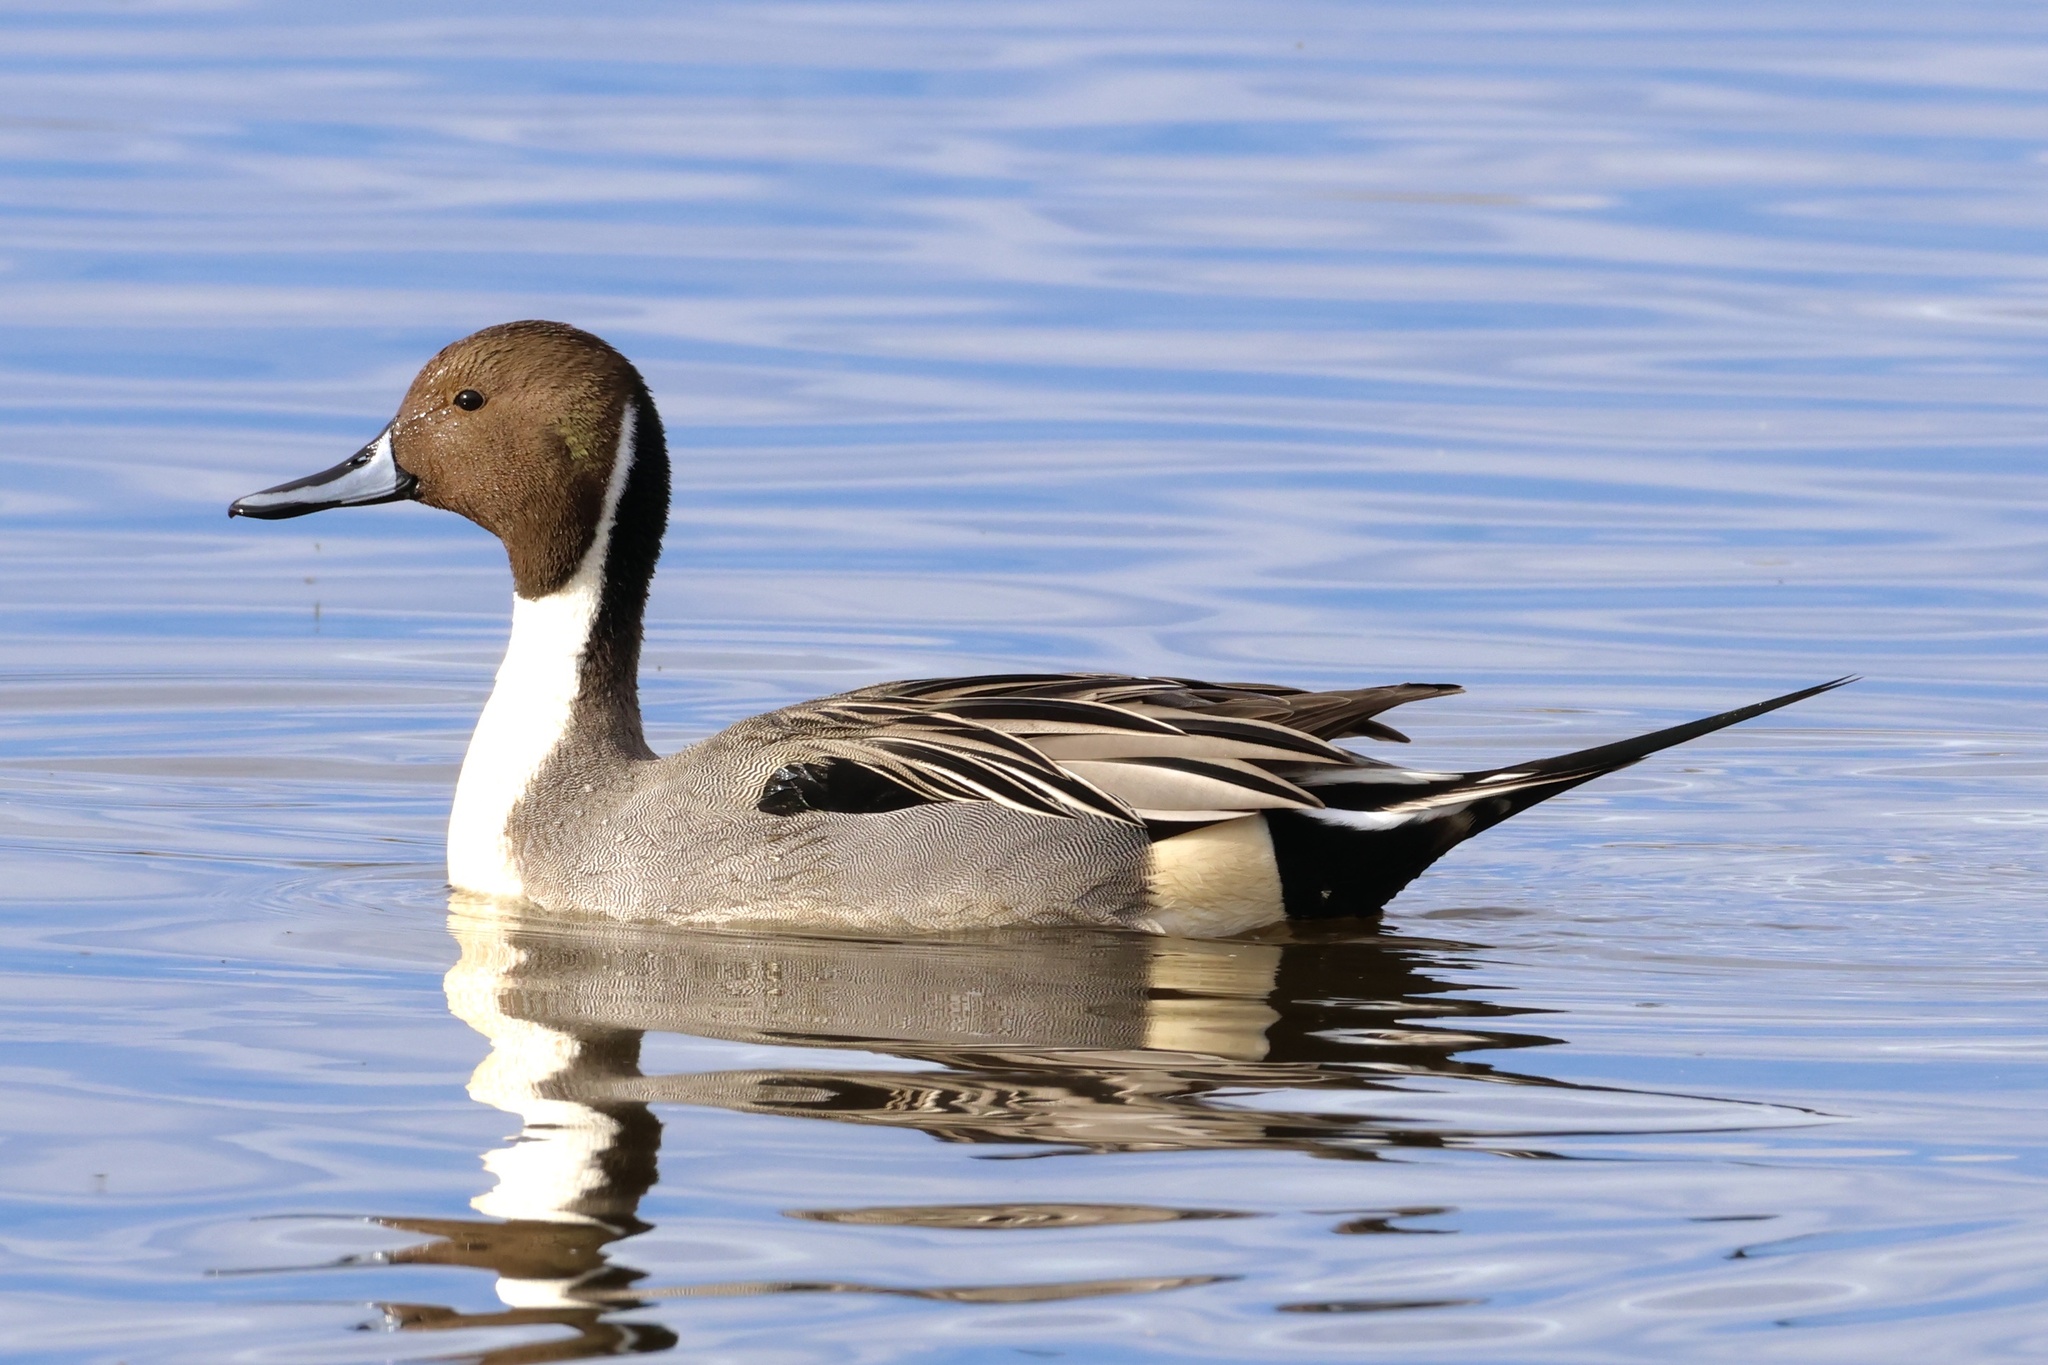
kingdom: Animalia
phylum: Chordata
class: Aves
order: Anseriformes
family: Anatidae
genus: Anas
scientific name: Anas acuta
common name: Northern pintail
